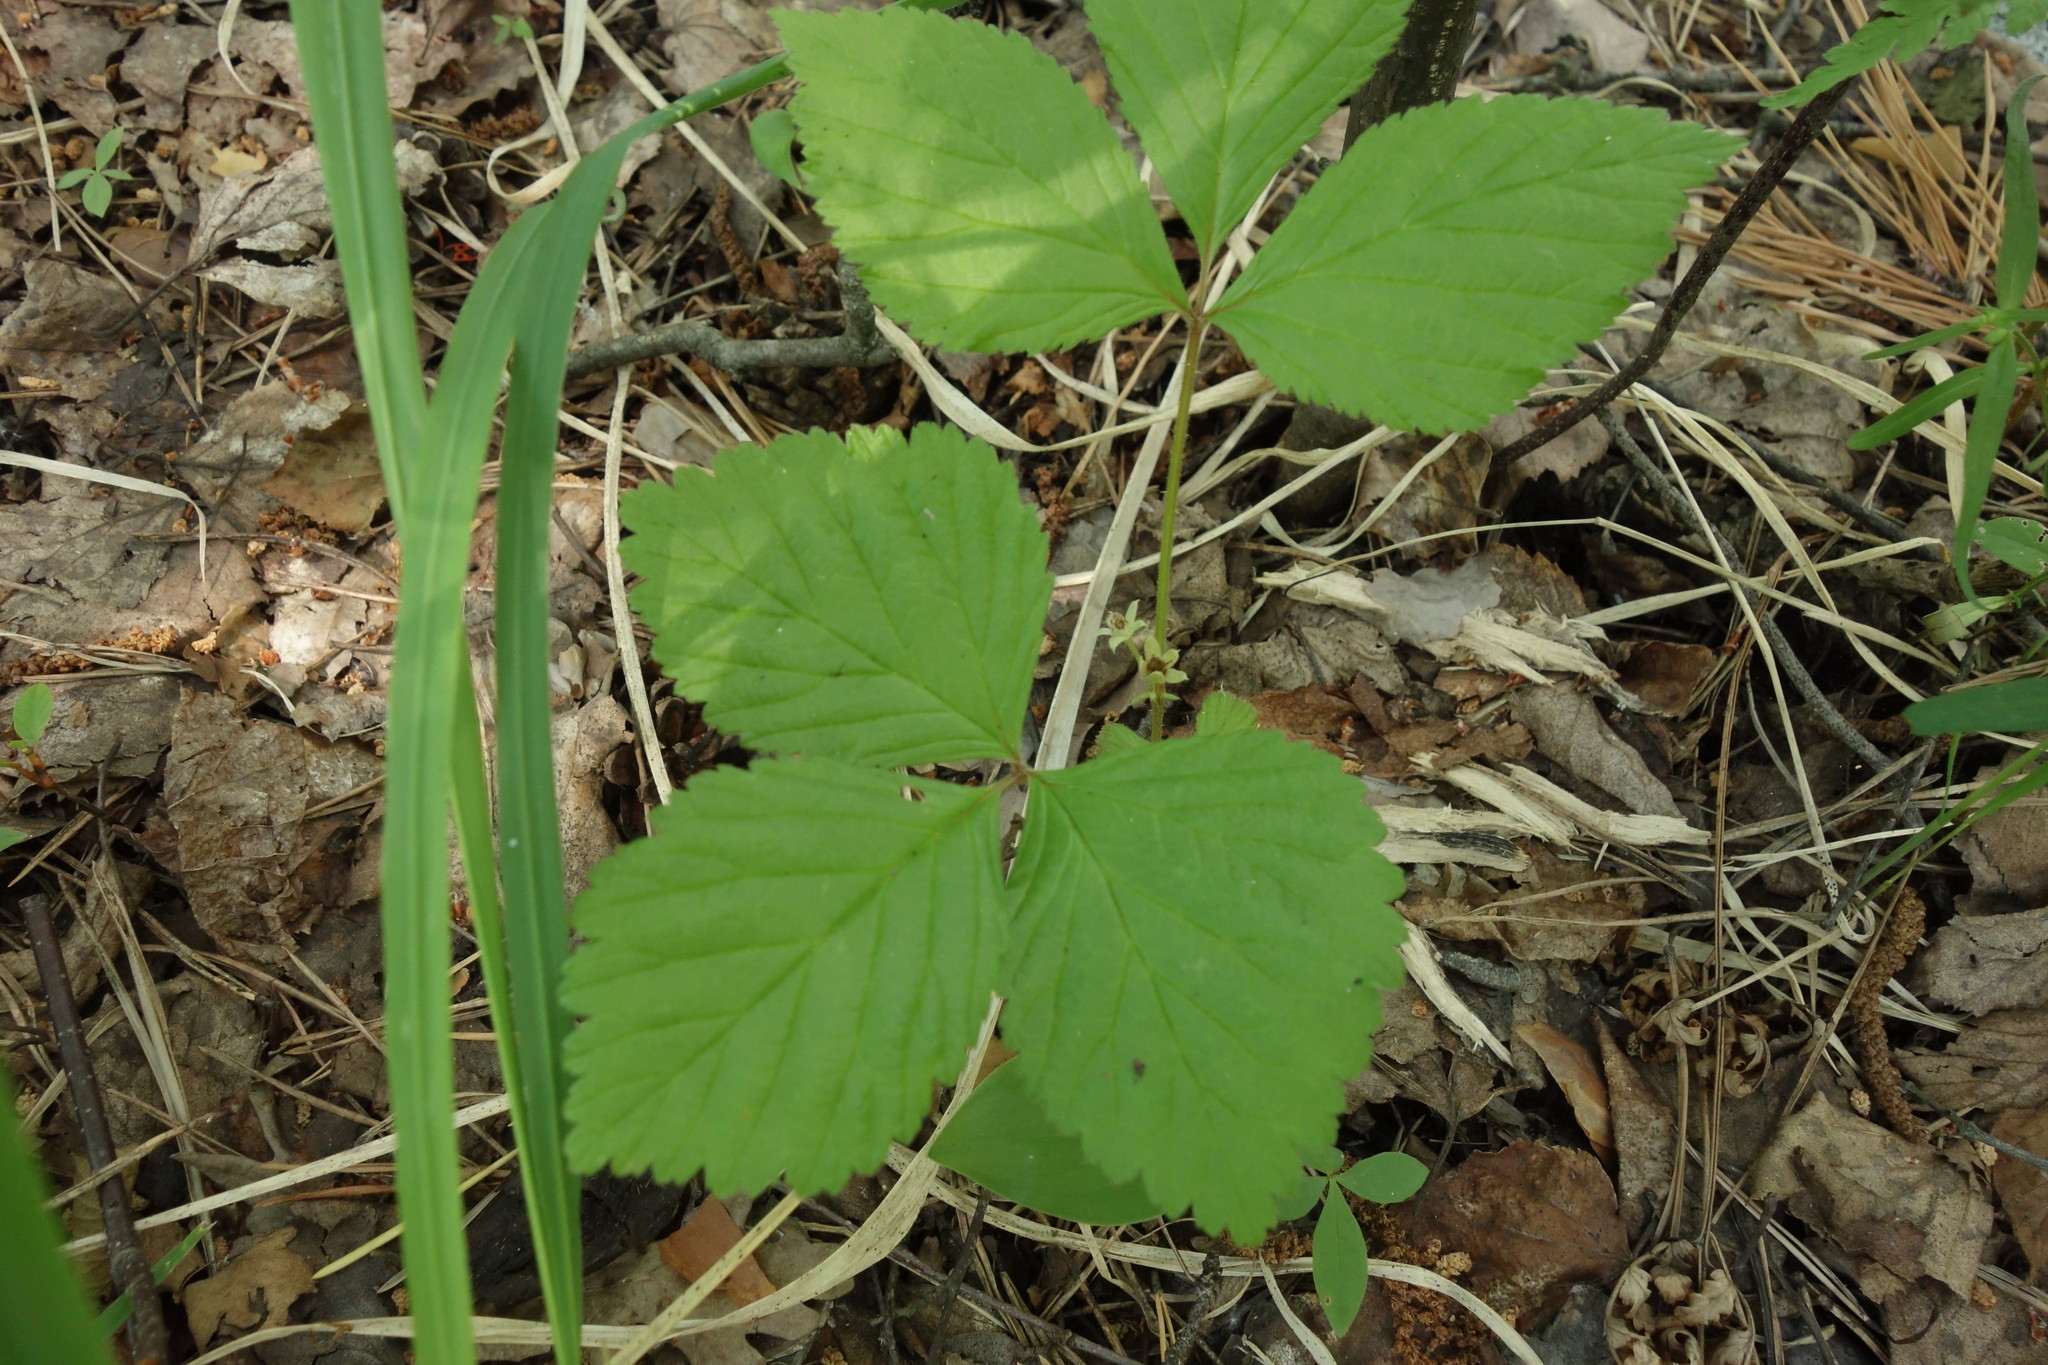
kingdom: Plantae
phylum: Tracheophyta
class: Magnoliopsida
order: Rosales
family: Rosaceae
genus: Rubus
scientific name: Rubus saxatilis
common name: Stone bramble
